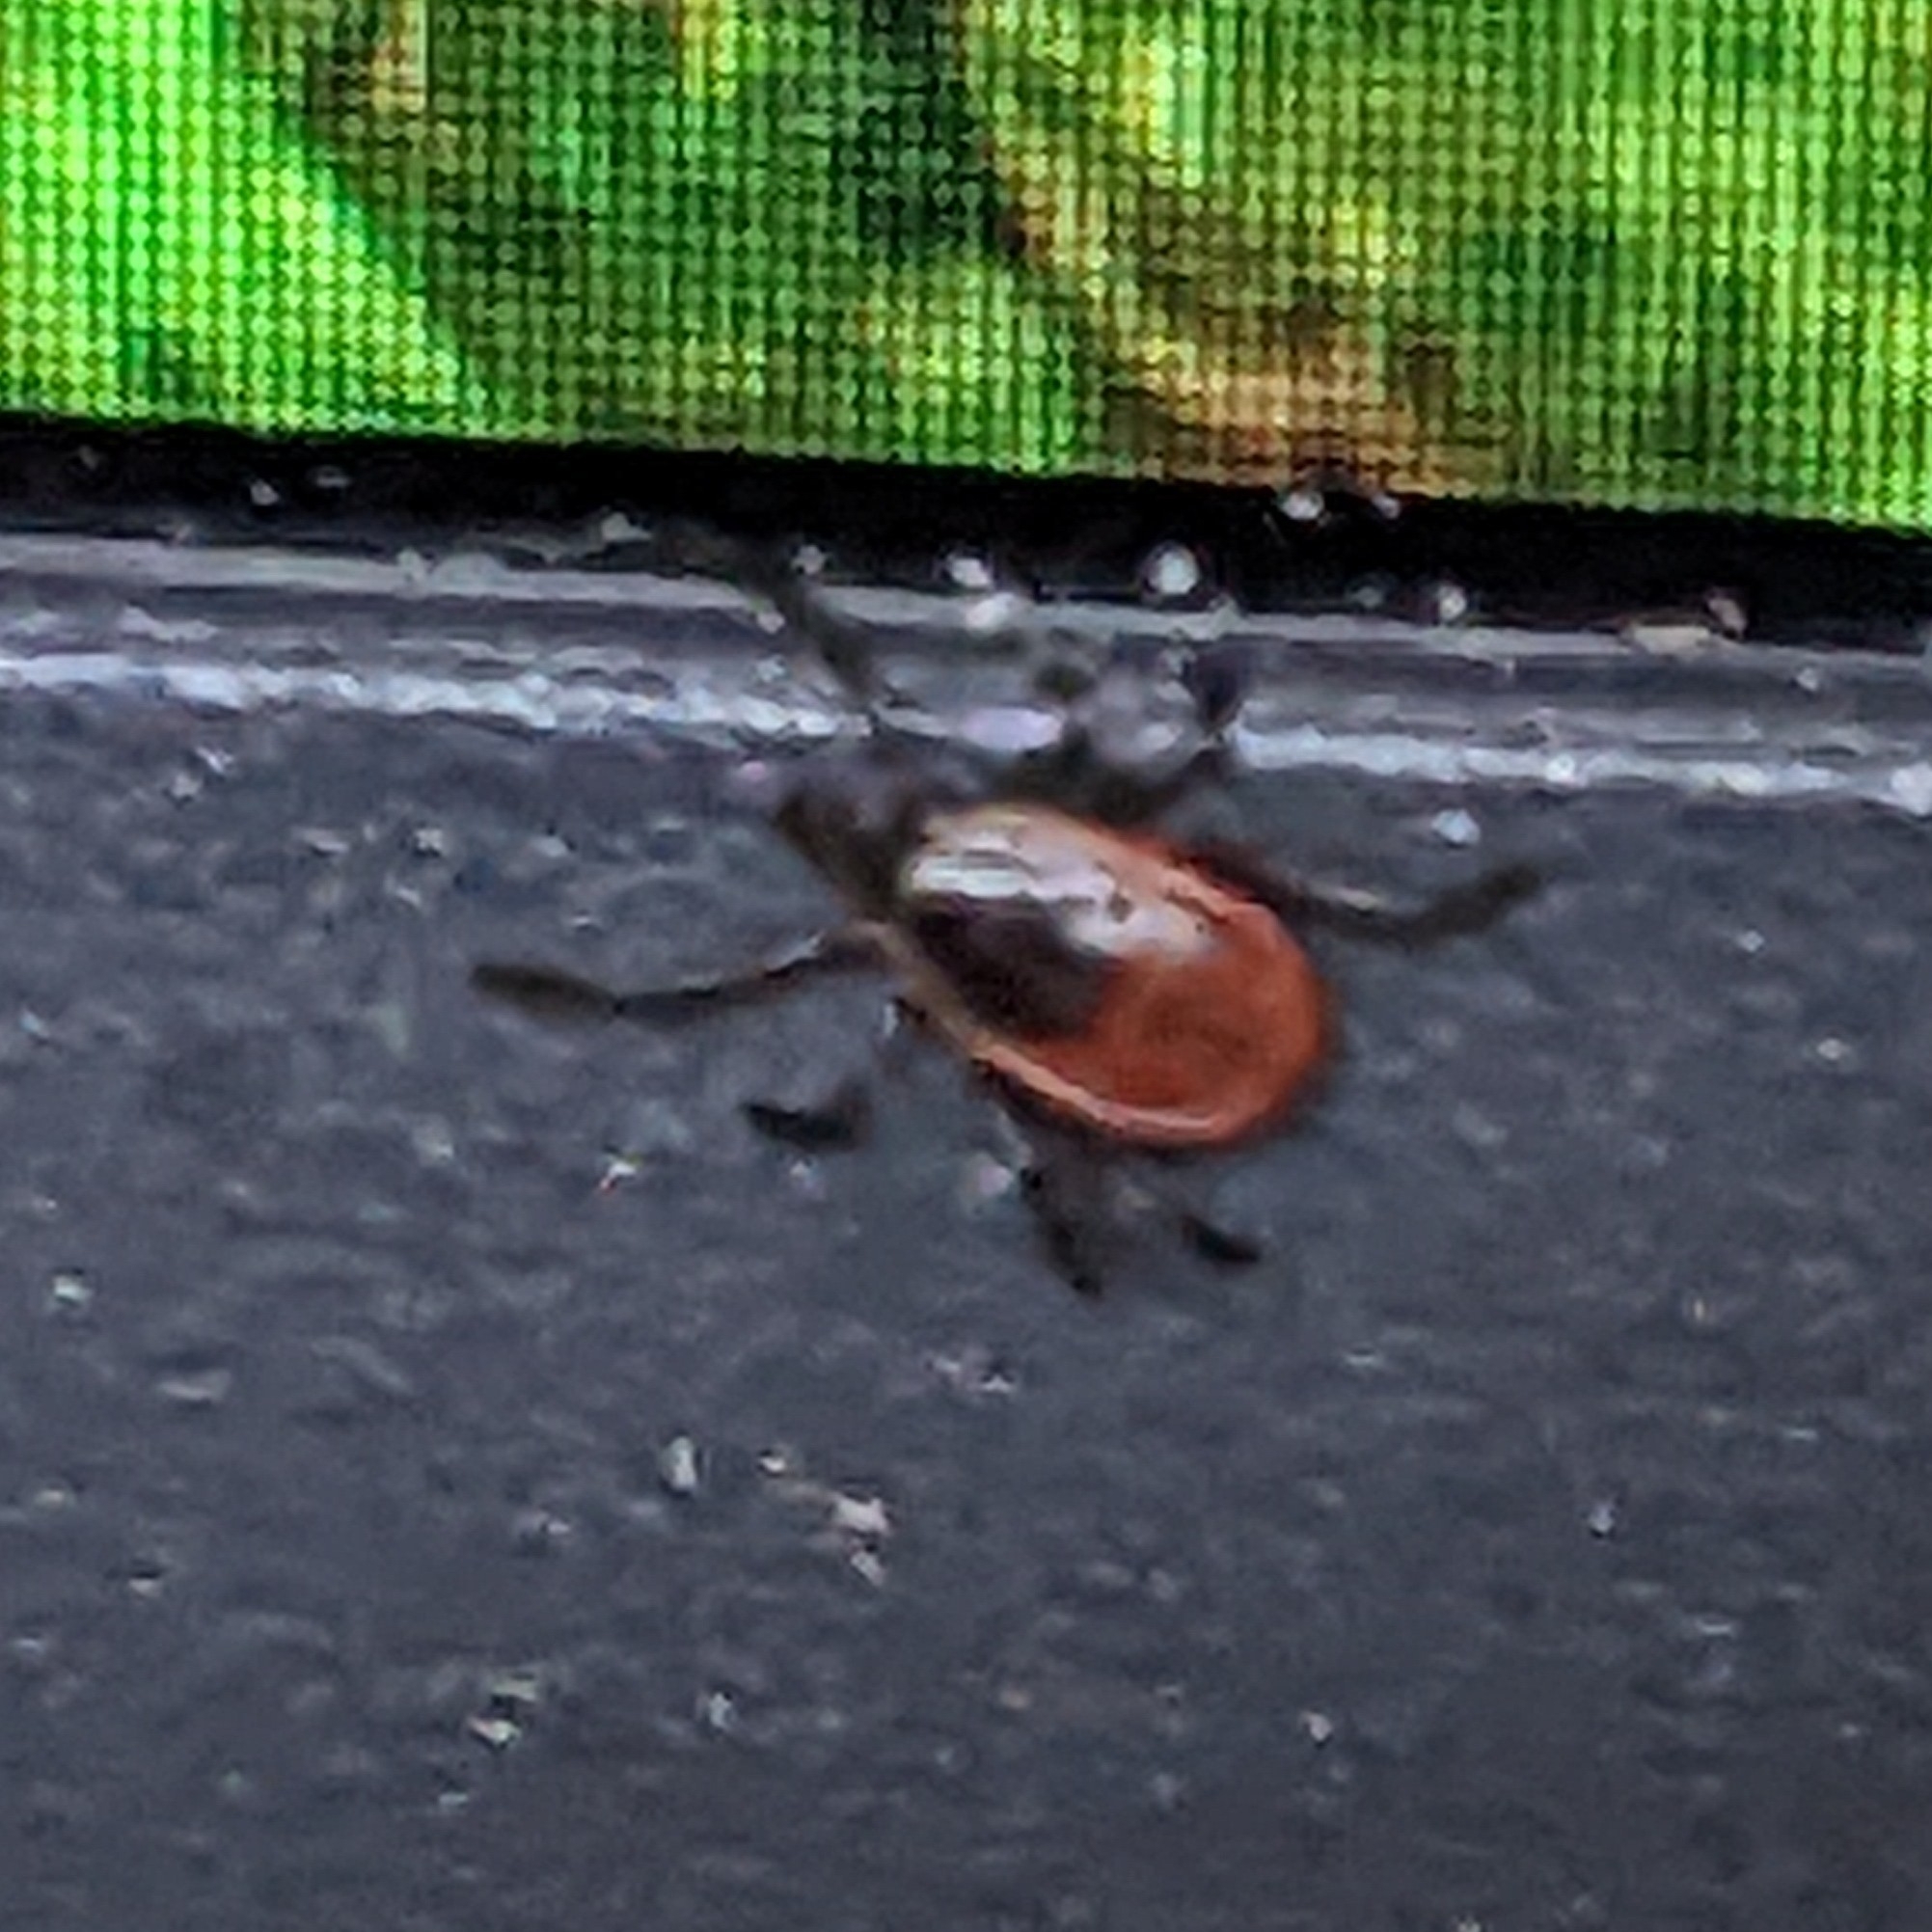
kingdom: Animalia
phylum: Arthropoda
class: Arachnida
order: Ixodida
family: Ixodidae
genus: Ixodes
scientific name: Ixodes scapularis
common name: Black legged tick
